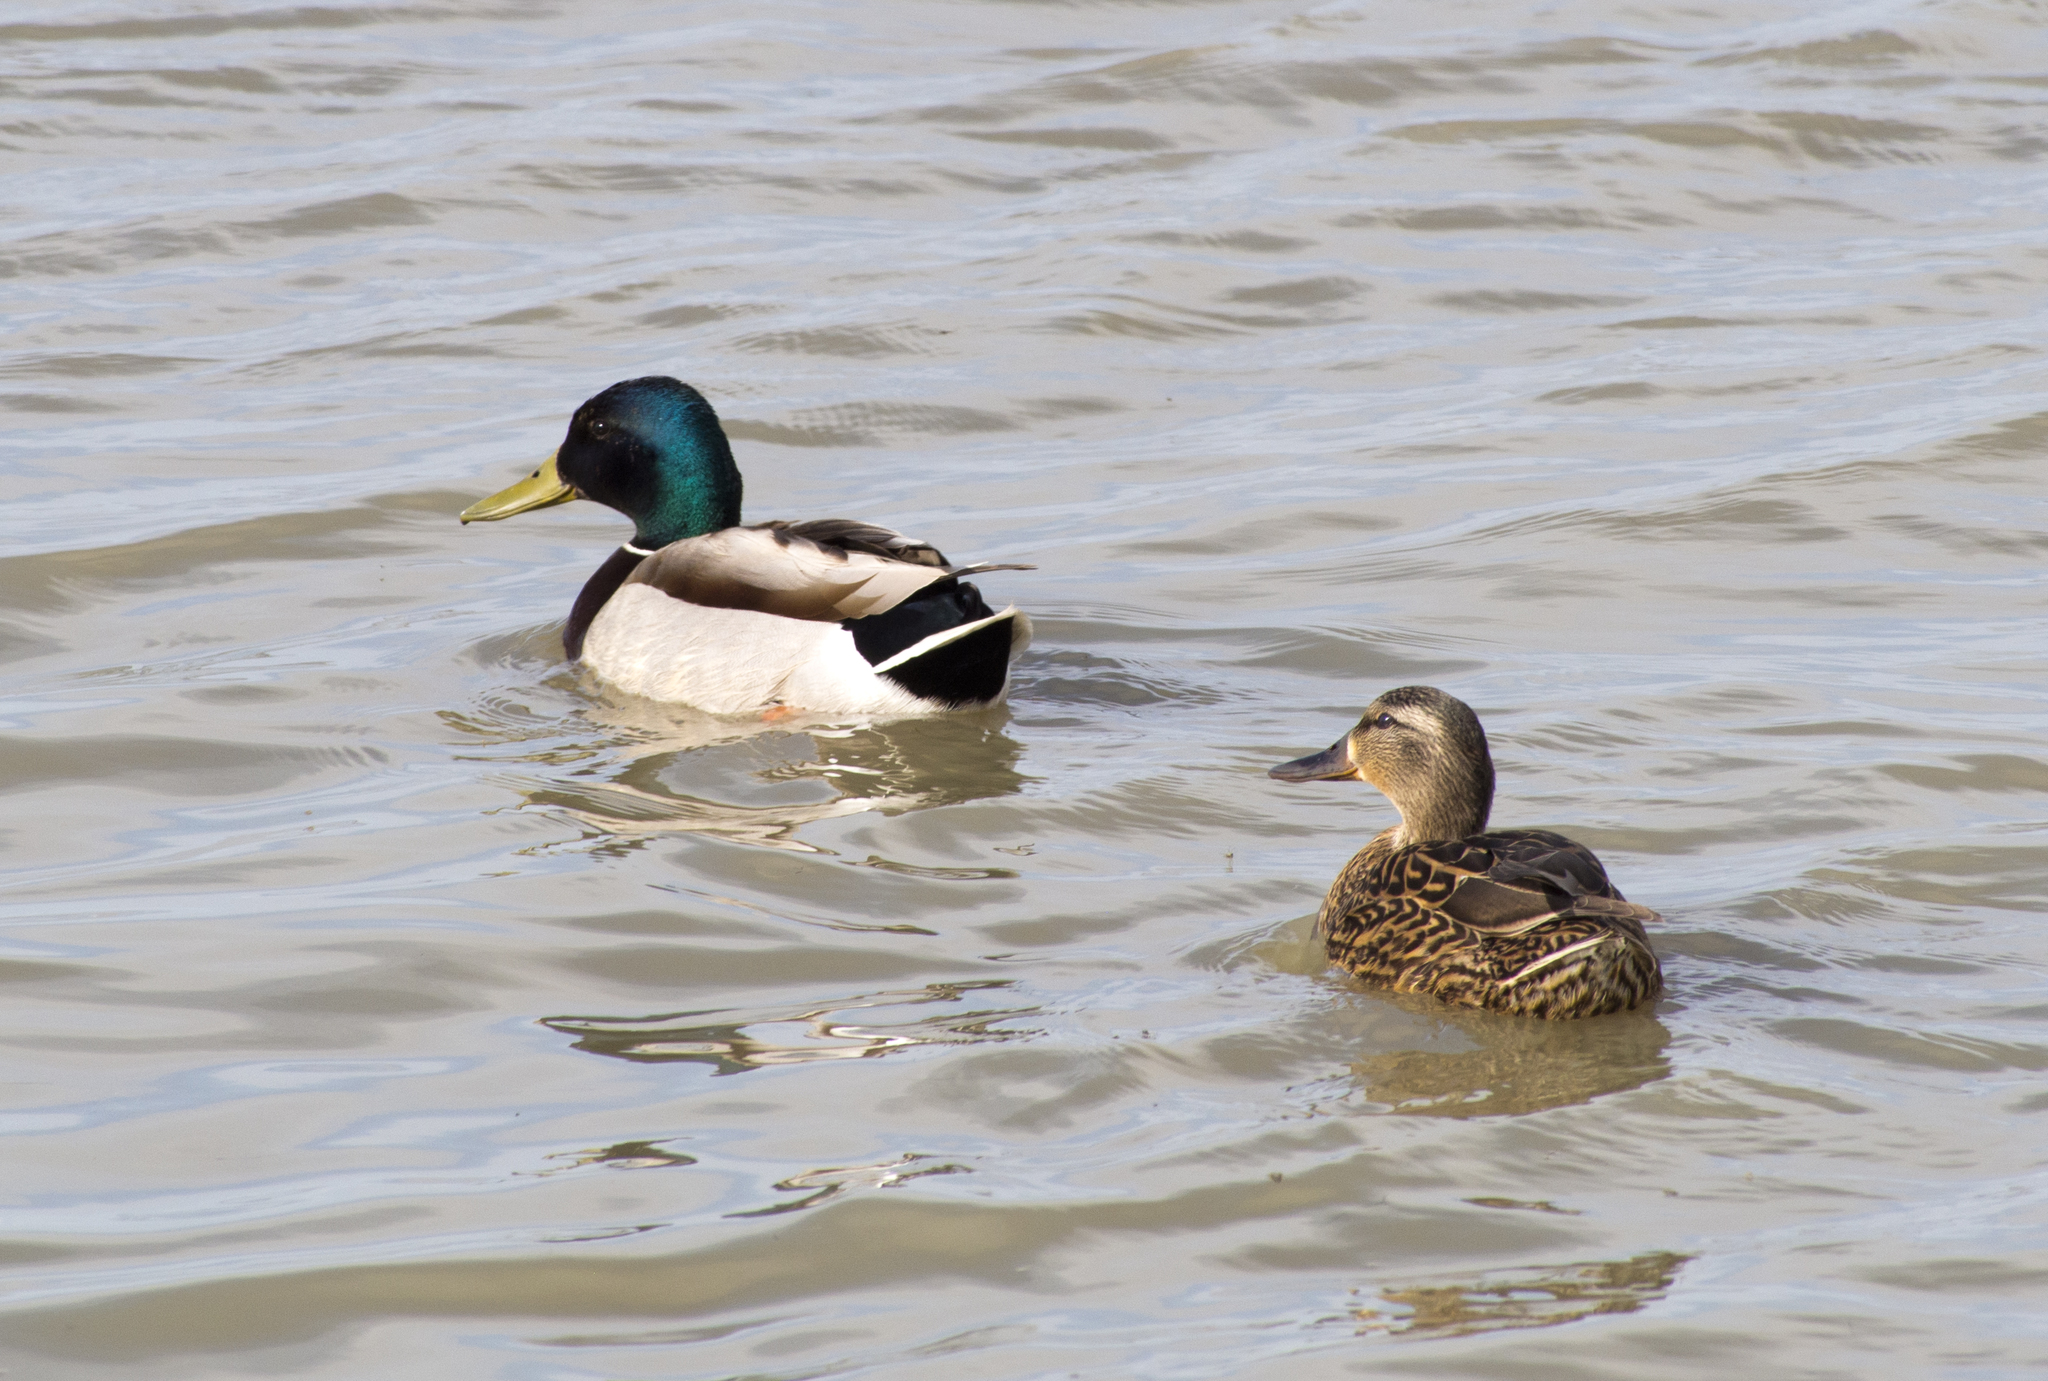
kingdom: Animalia
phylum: Chordata
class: Aves
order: Anseriformes
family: Anatidae
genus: Anas
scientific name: Anas platyrhynchos
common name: Mallard
